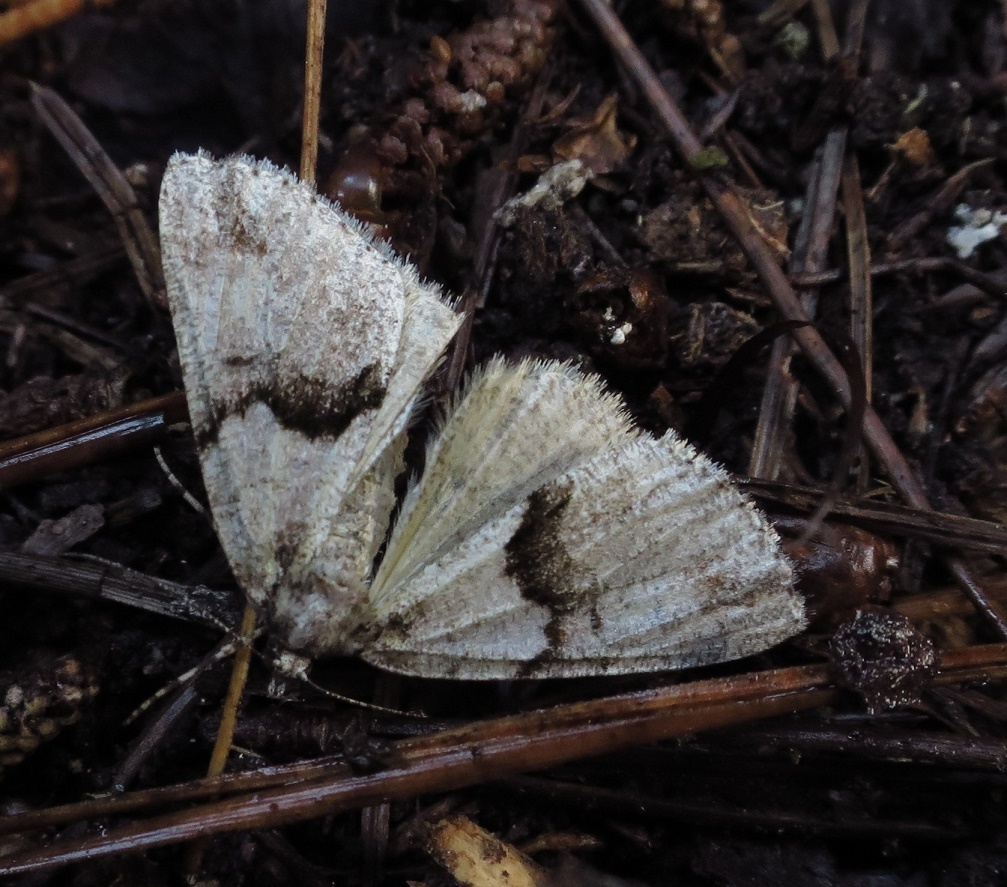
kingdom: Animalia
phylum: Arthropoda
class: Insecta
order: Lepidoptera
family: Geometridae
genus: Pseudocoremia
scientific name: Pseudocoremia suavis
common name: Common forest looper
